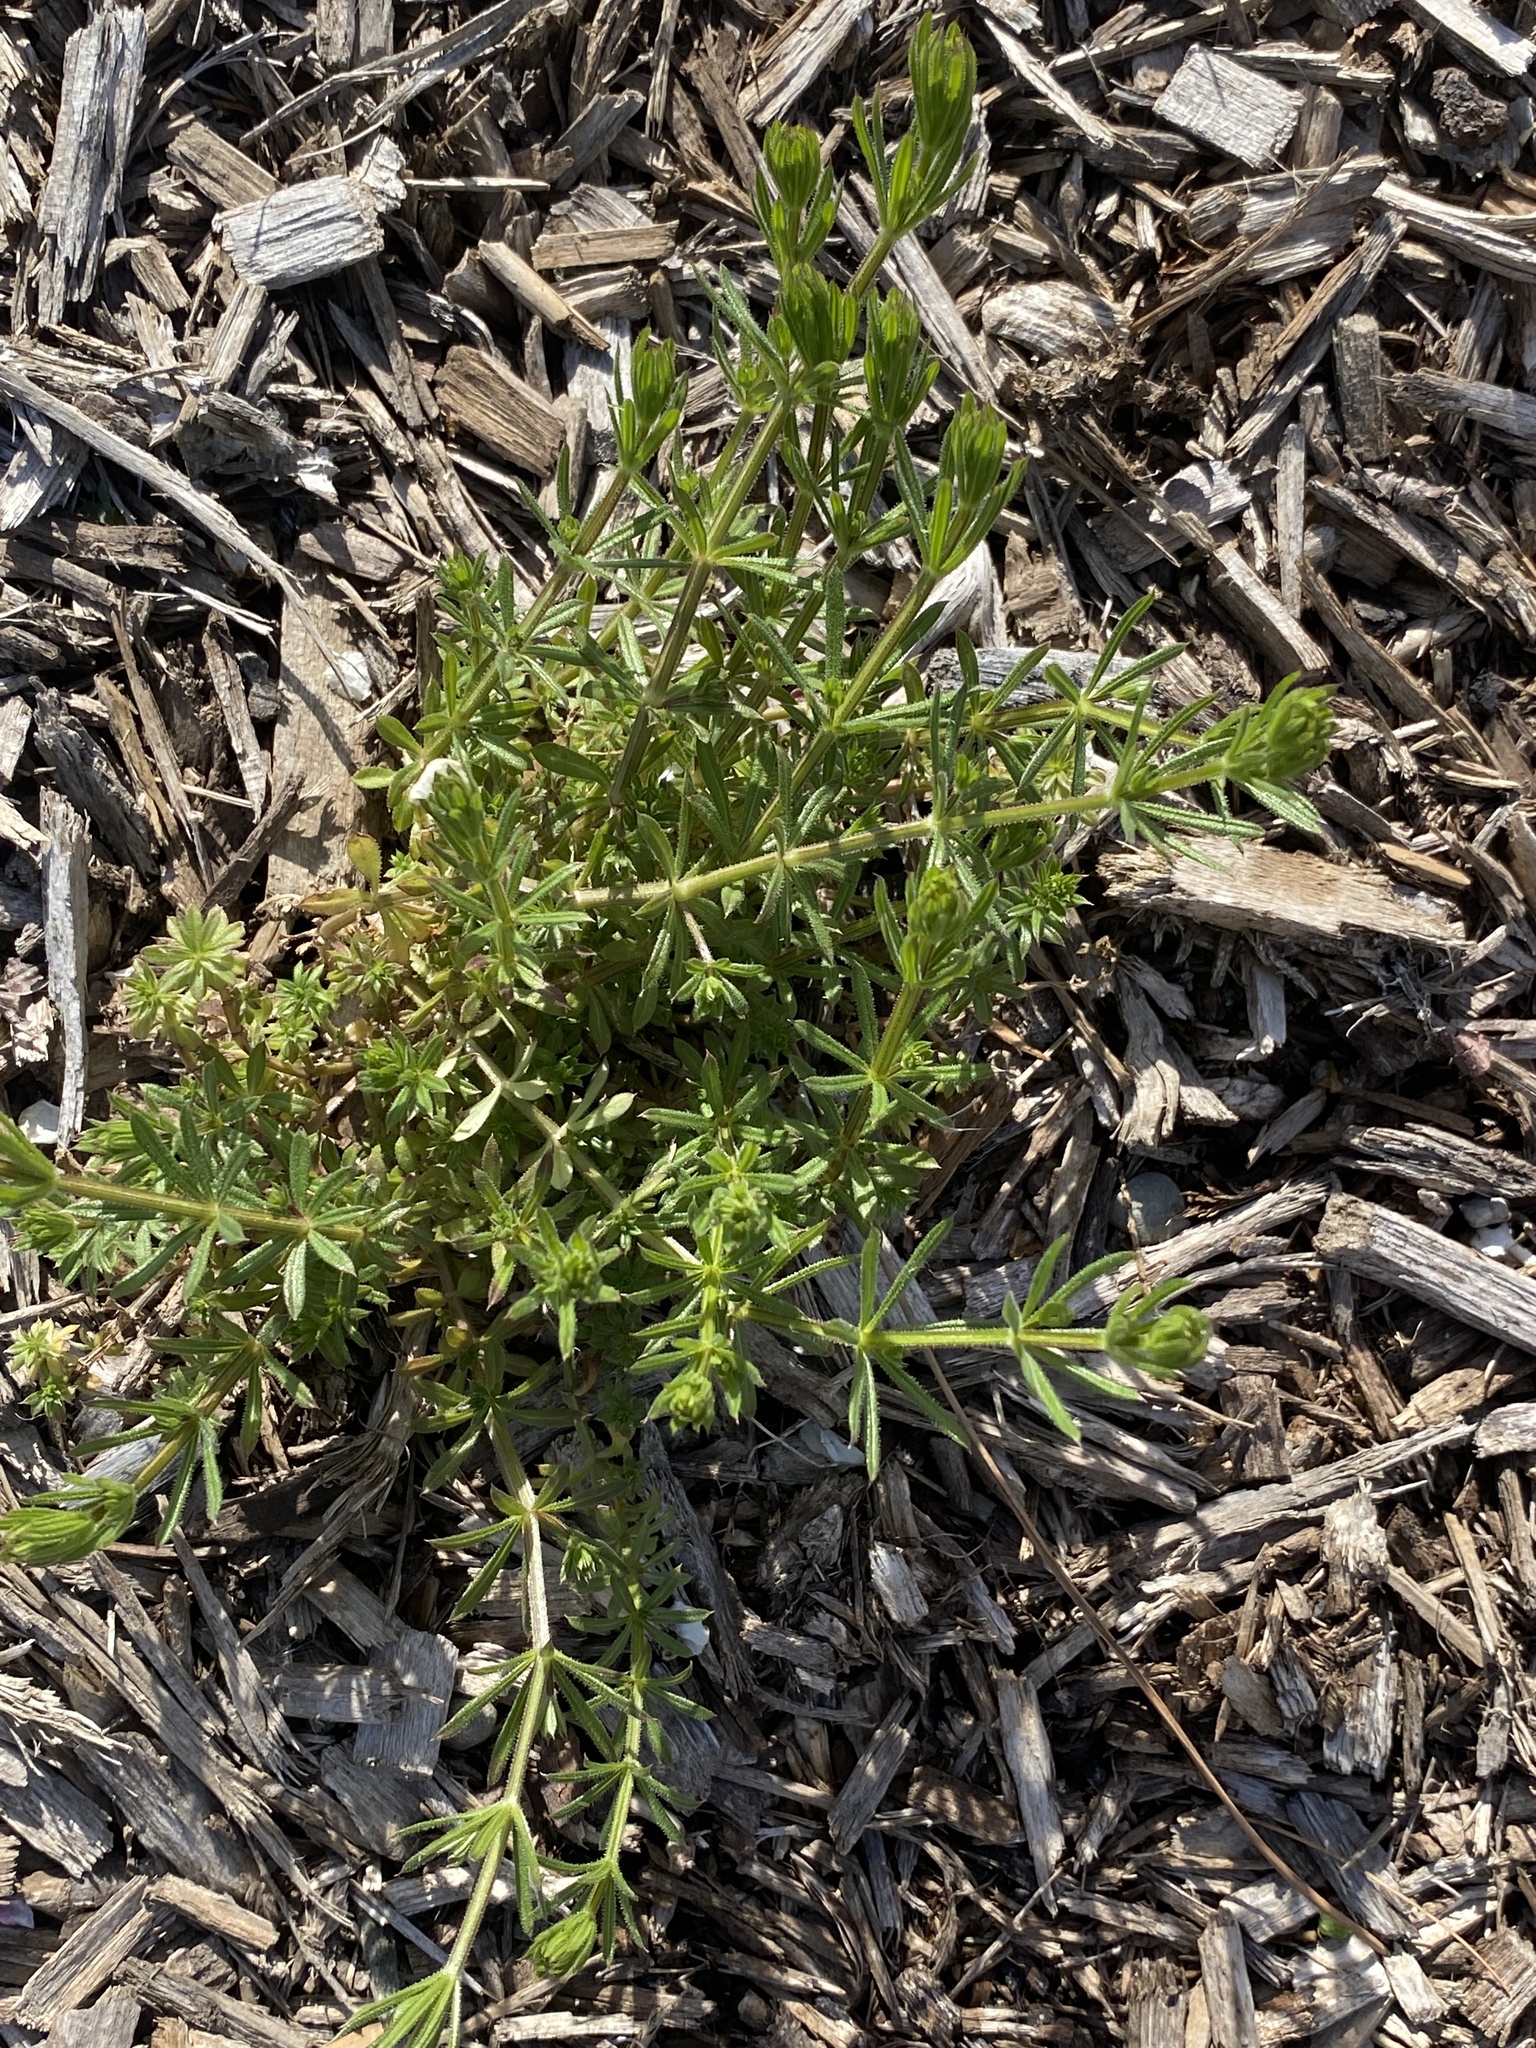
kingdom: Plantae
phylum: Tracheophyta
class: Magnoliopsida
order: Gentianales
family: Rubiaceae
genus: Galium
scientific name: Galium aparine
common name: Cleavers
